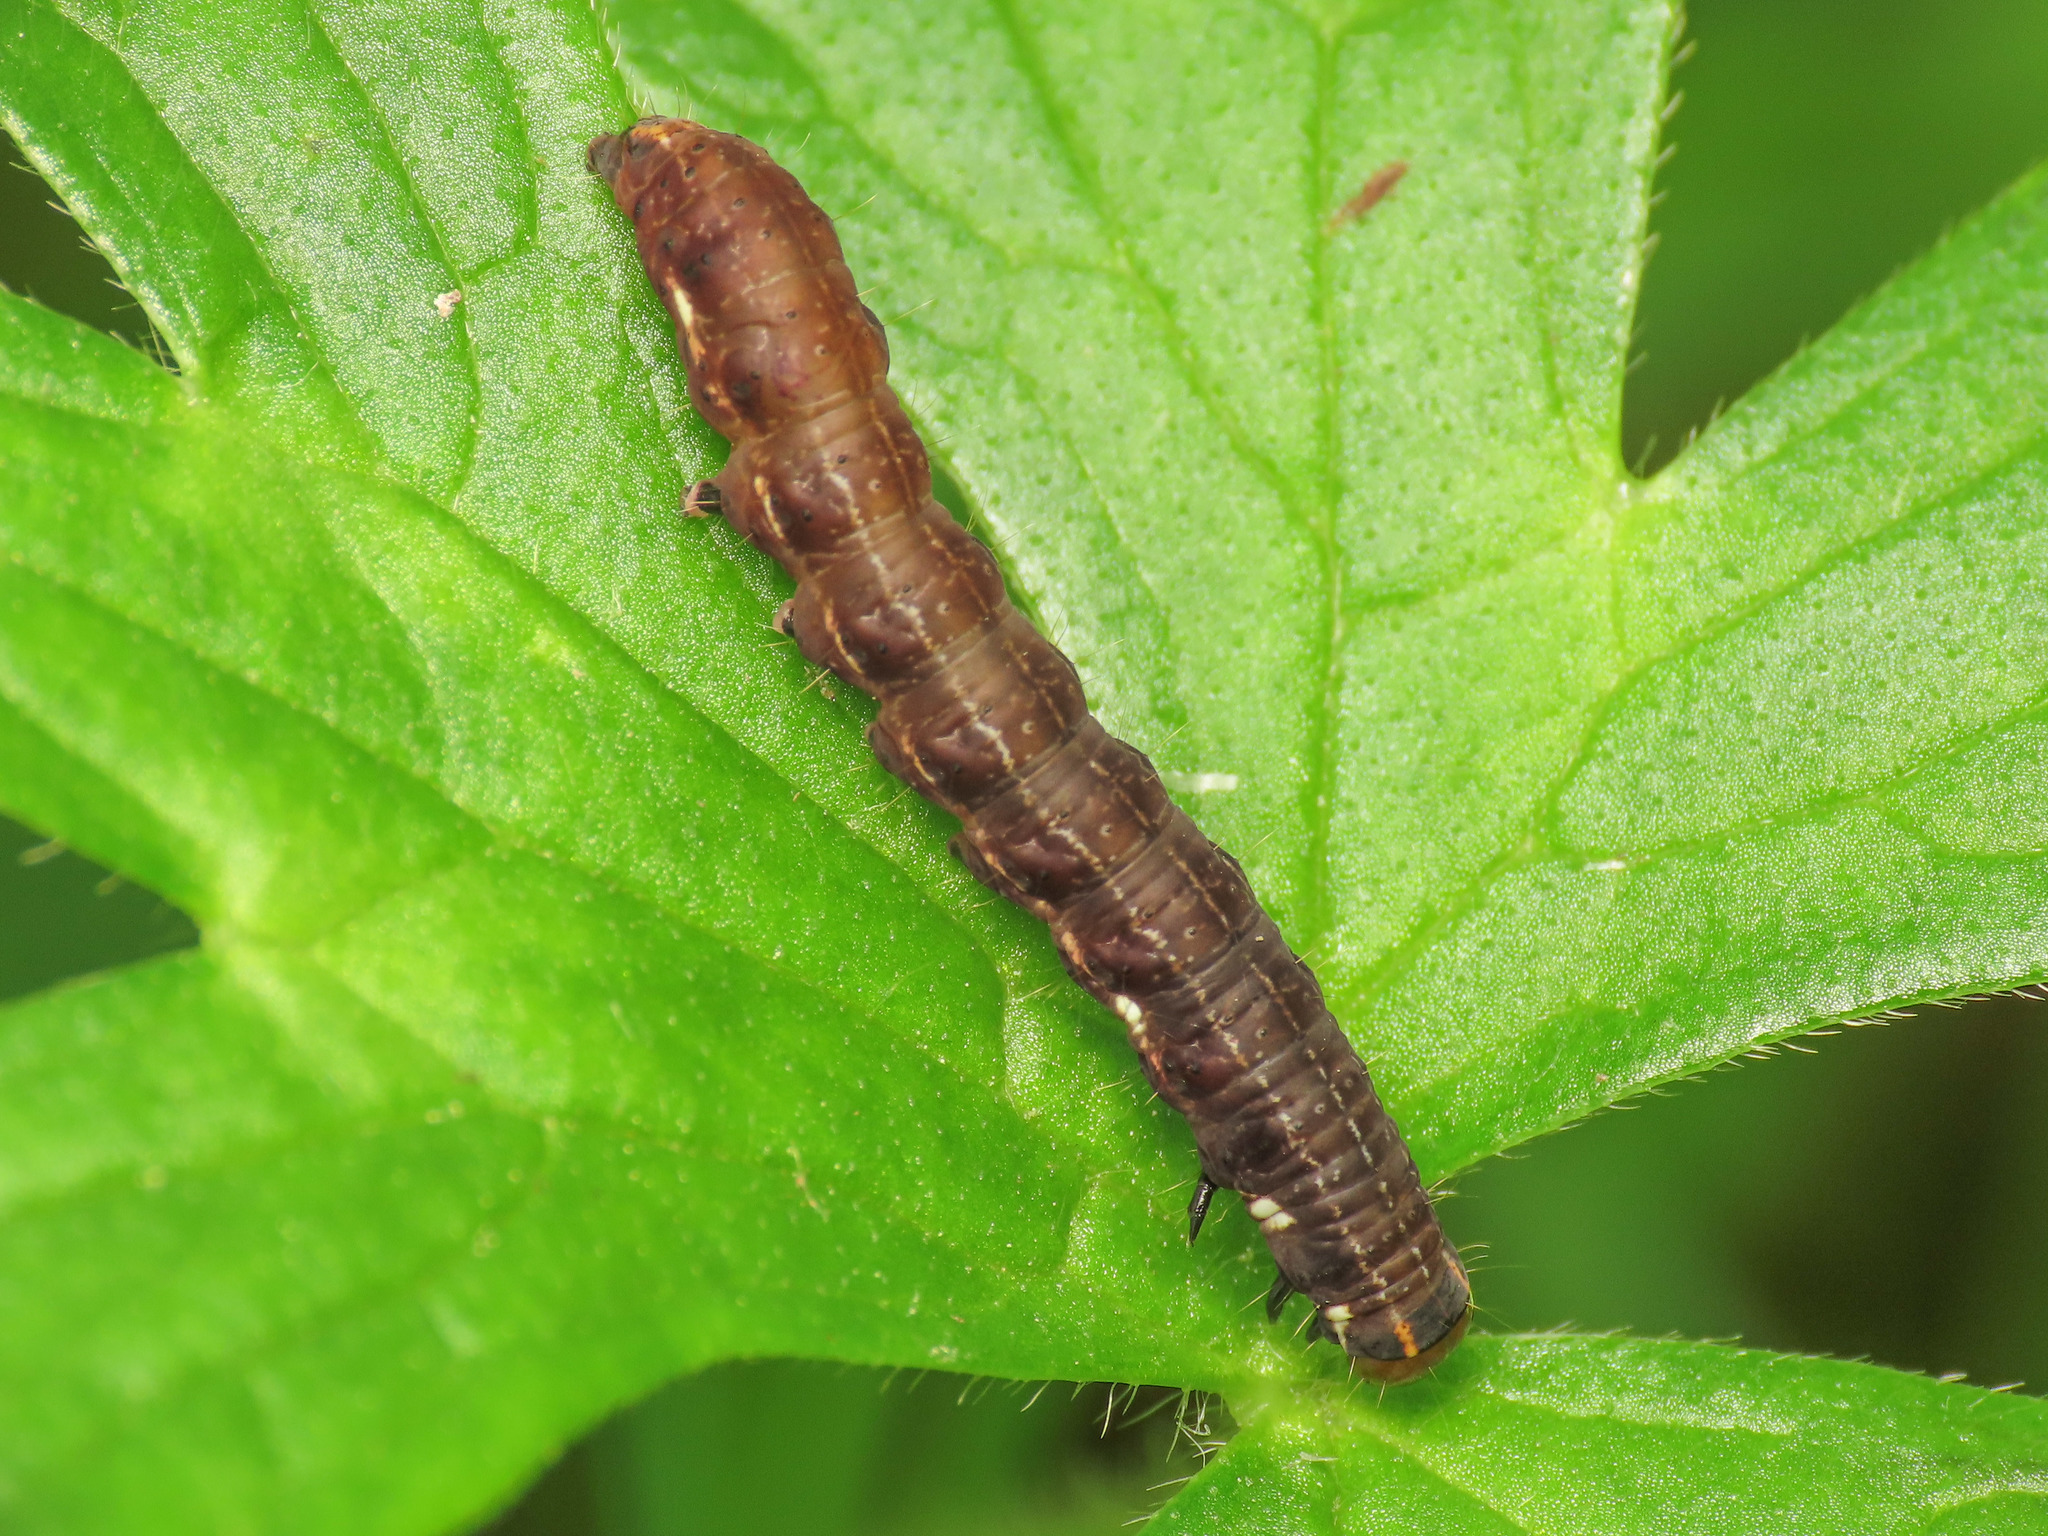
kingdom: Animalia
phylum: Arthropoda
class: Insecta
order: Lepidoptera
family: Noctuidae
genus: Eupsilia
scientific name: Eupsilia transversa
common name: Satellite
